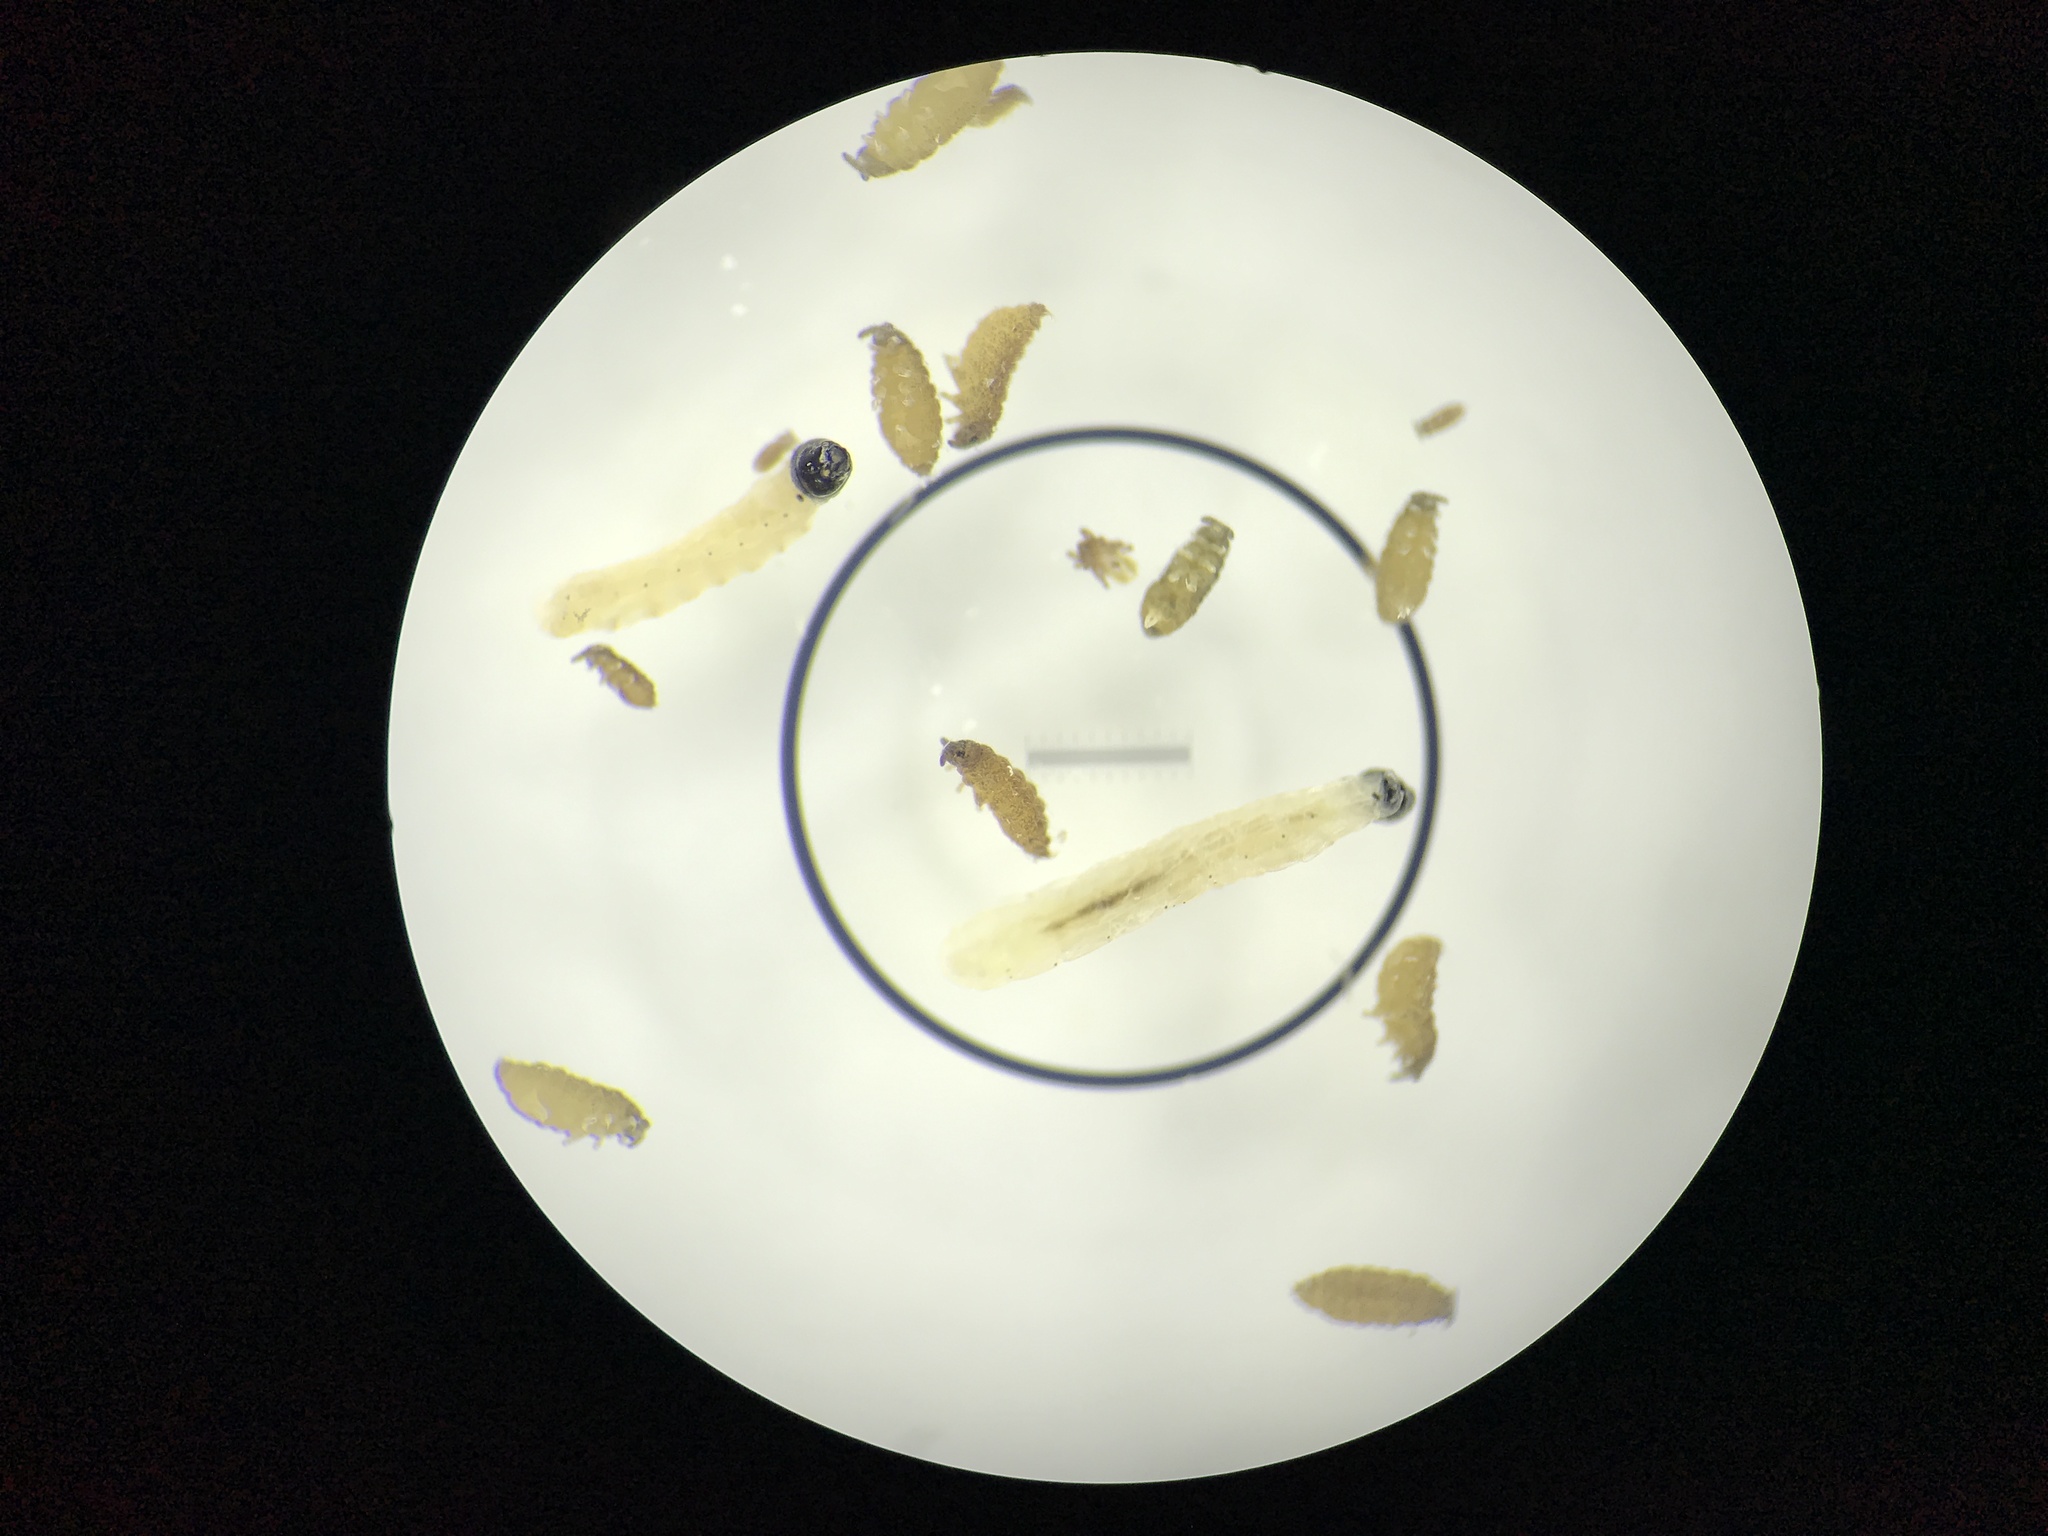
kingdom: Fungi
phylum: Ascomycota
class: Pezizomycetes
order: Pezizales
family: Morchellaceae
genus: Morchella
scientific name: Morchella americana
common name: White morel
